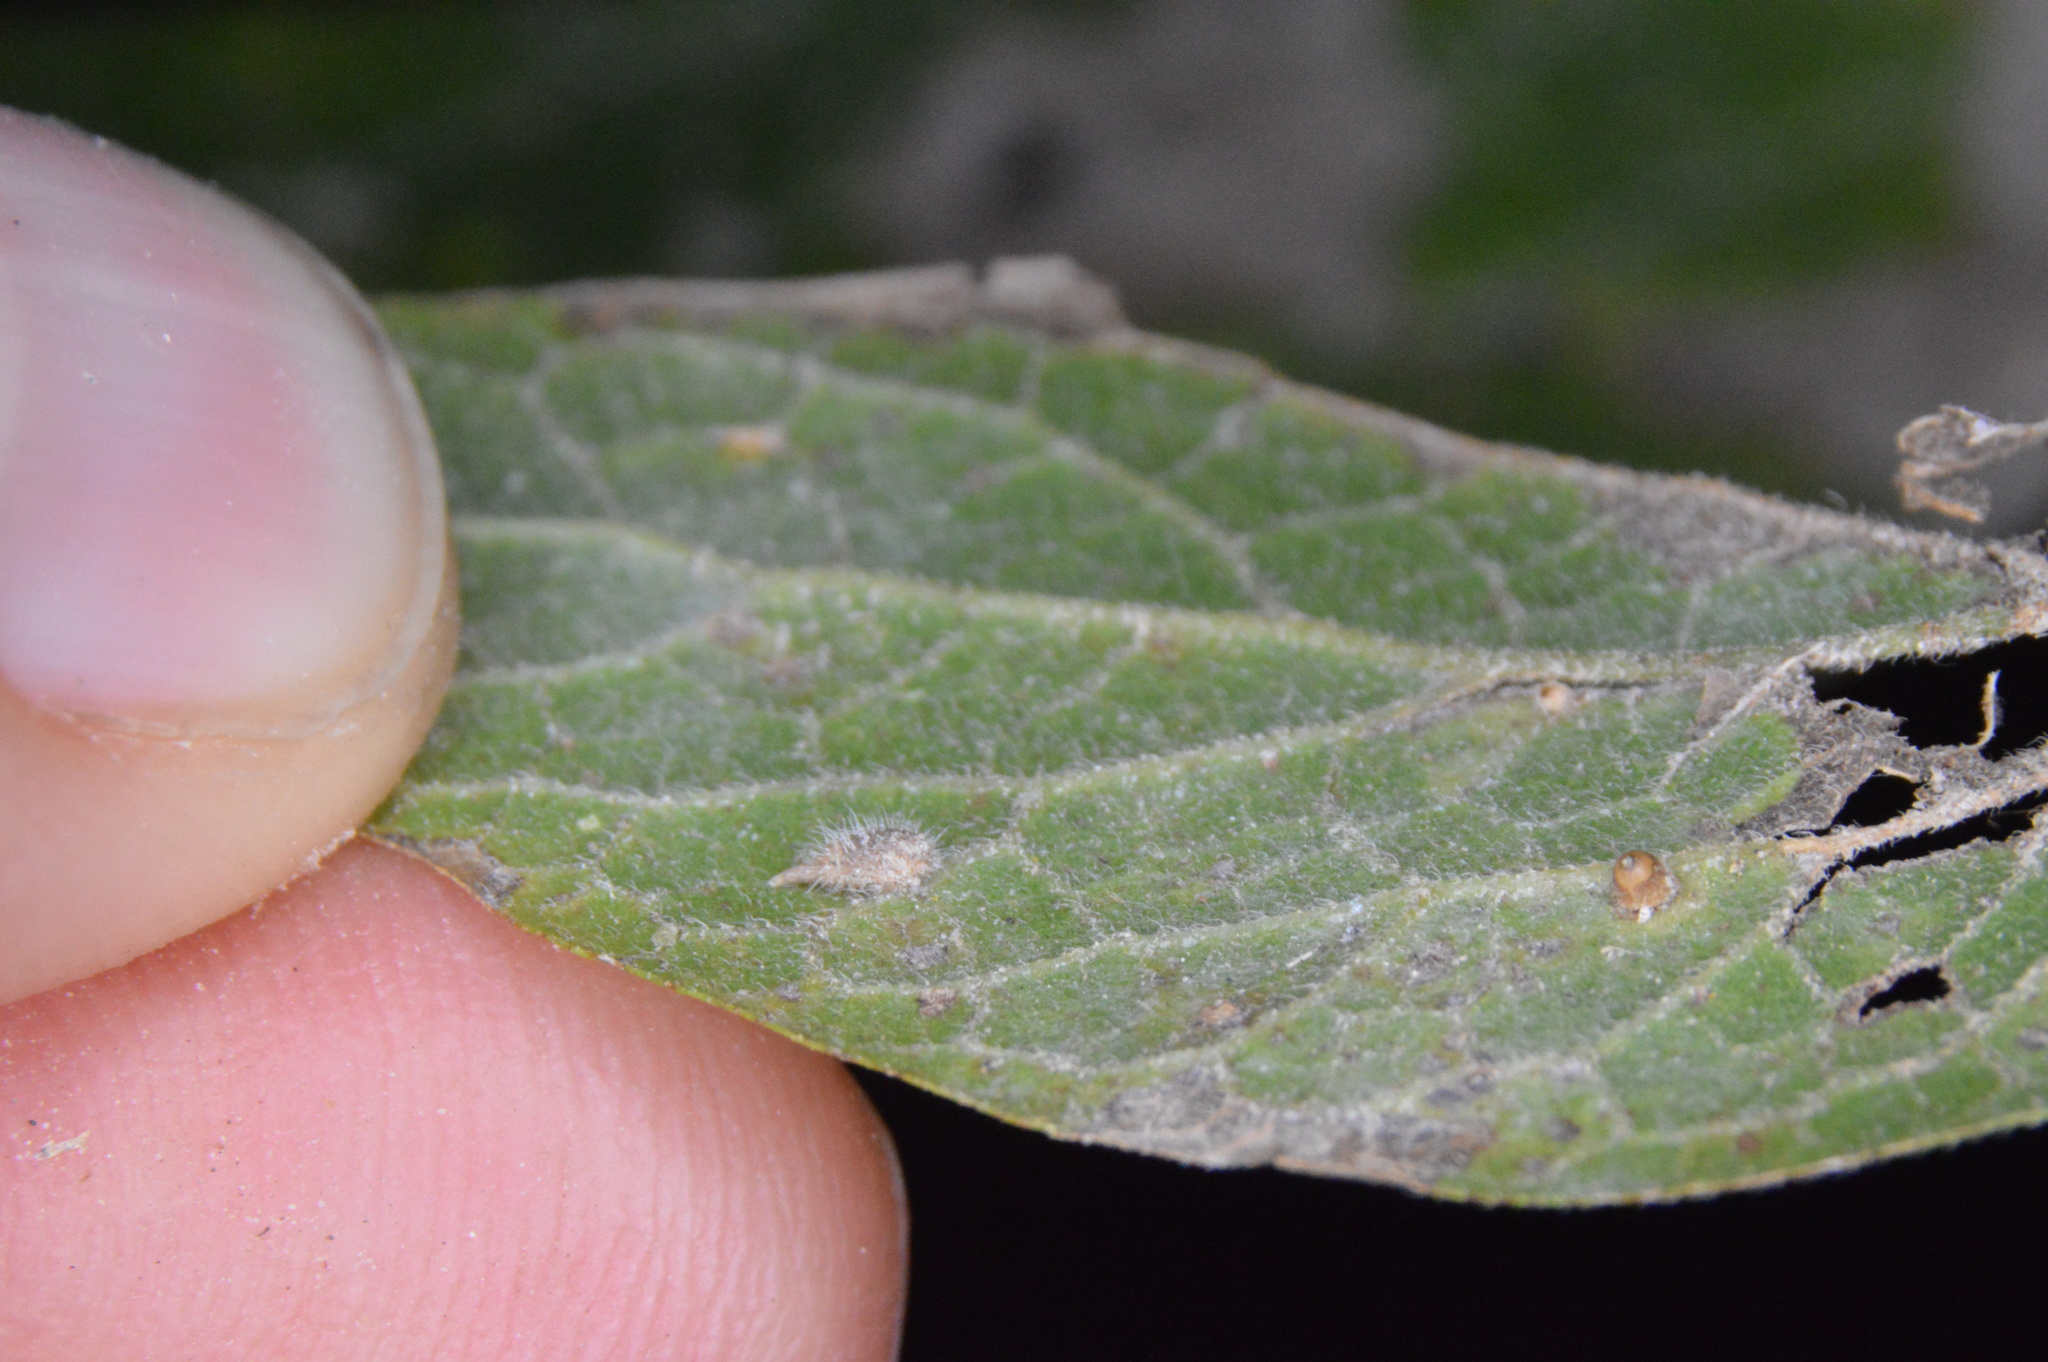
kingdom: Animalia
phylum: Arthropoda
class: Insecta
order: Diptera
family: Cecidomyiidae
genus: Celticecis
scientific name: Celticecis supina
